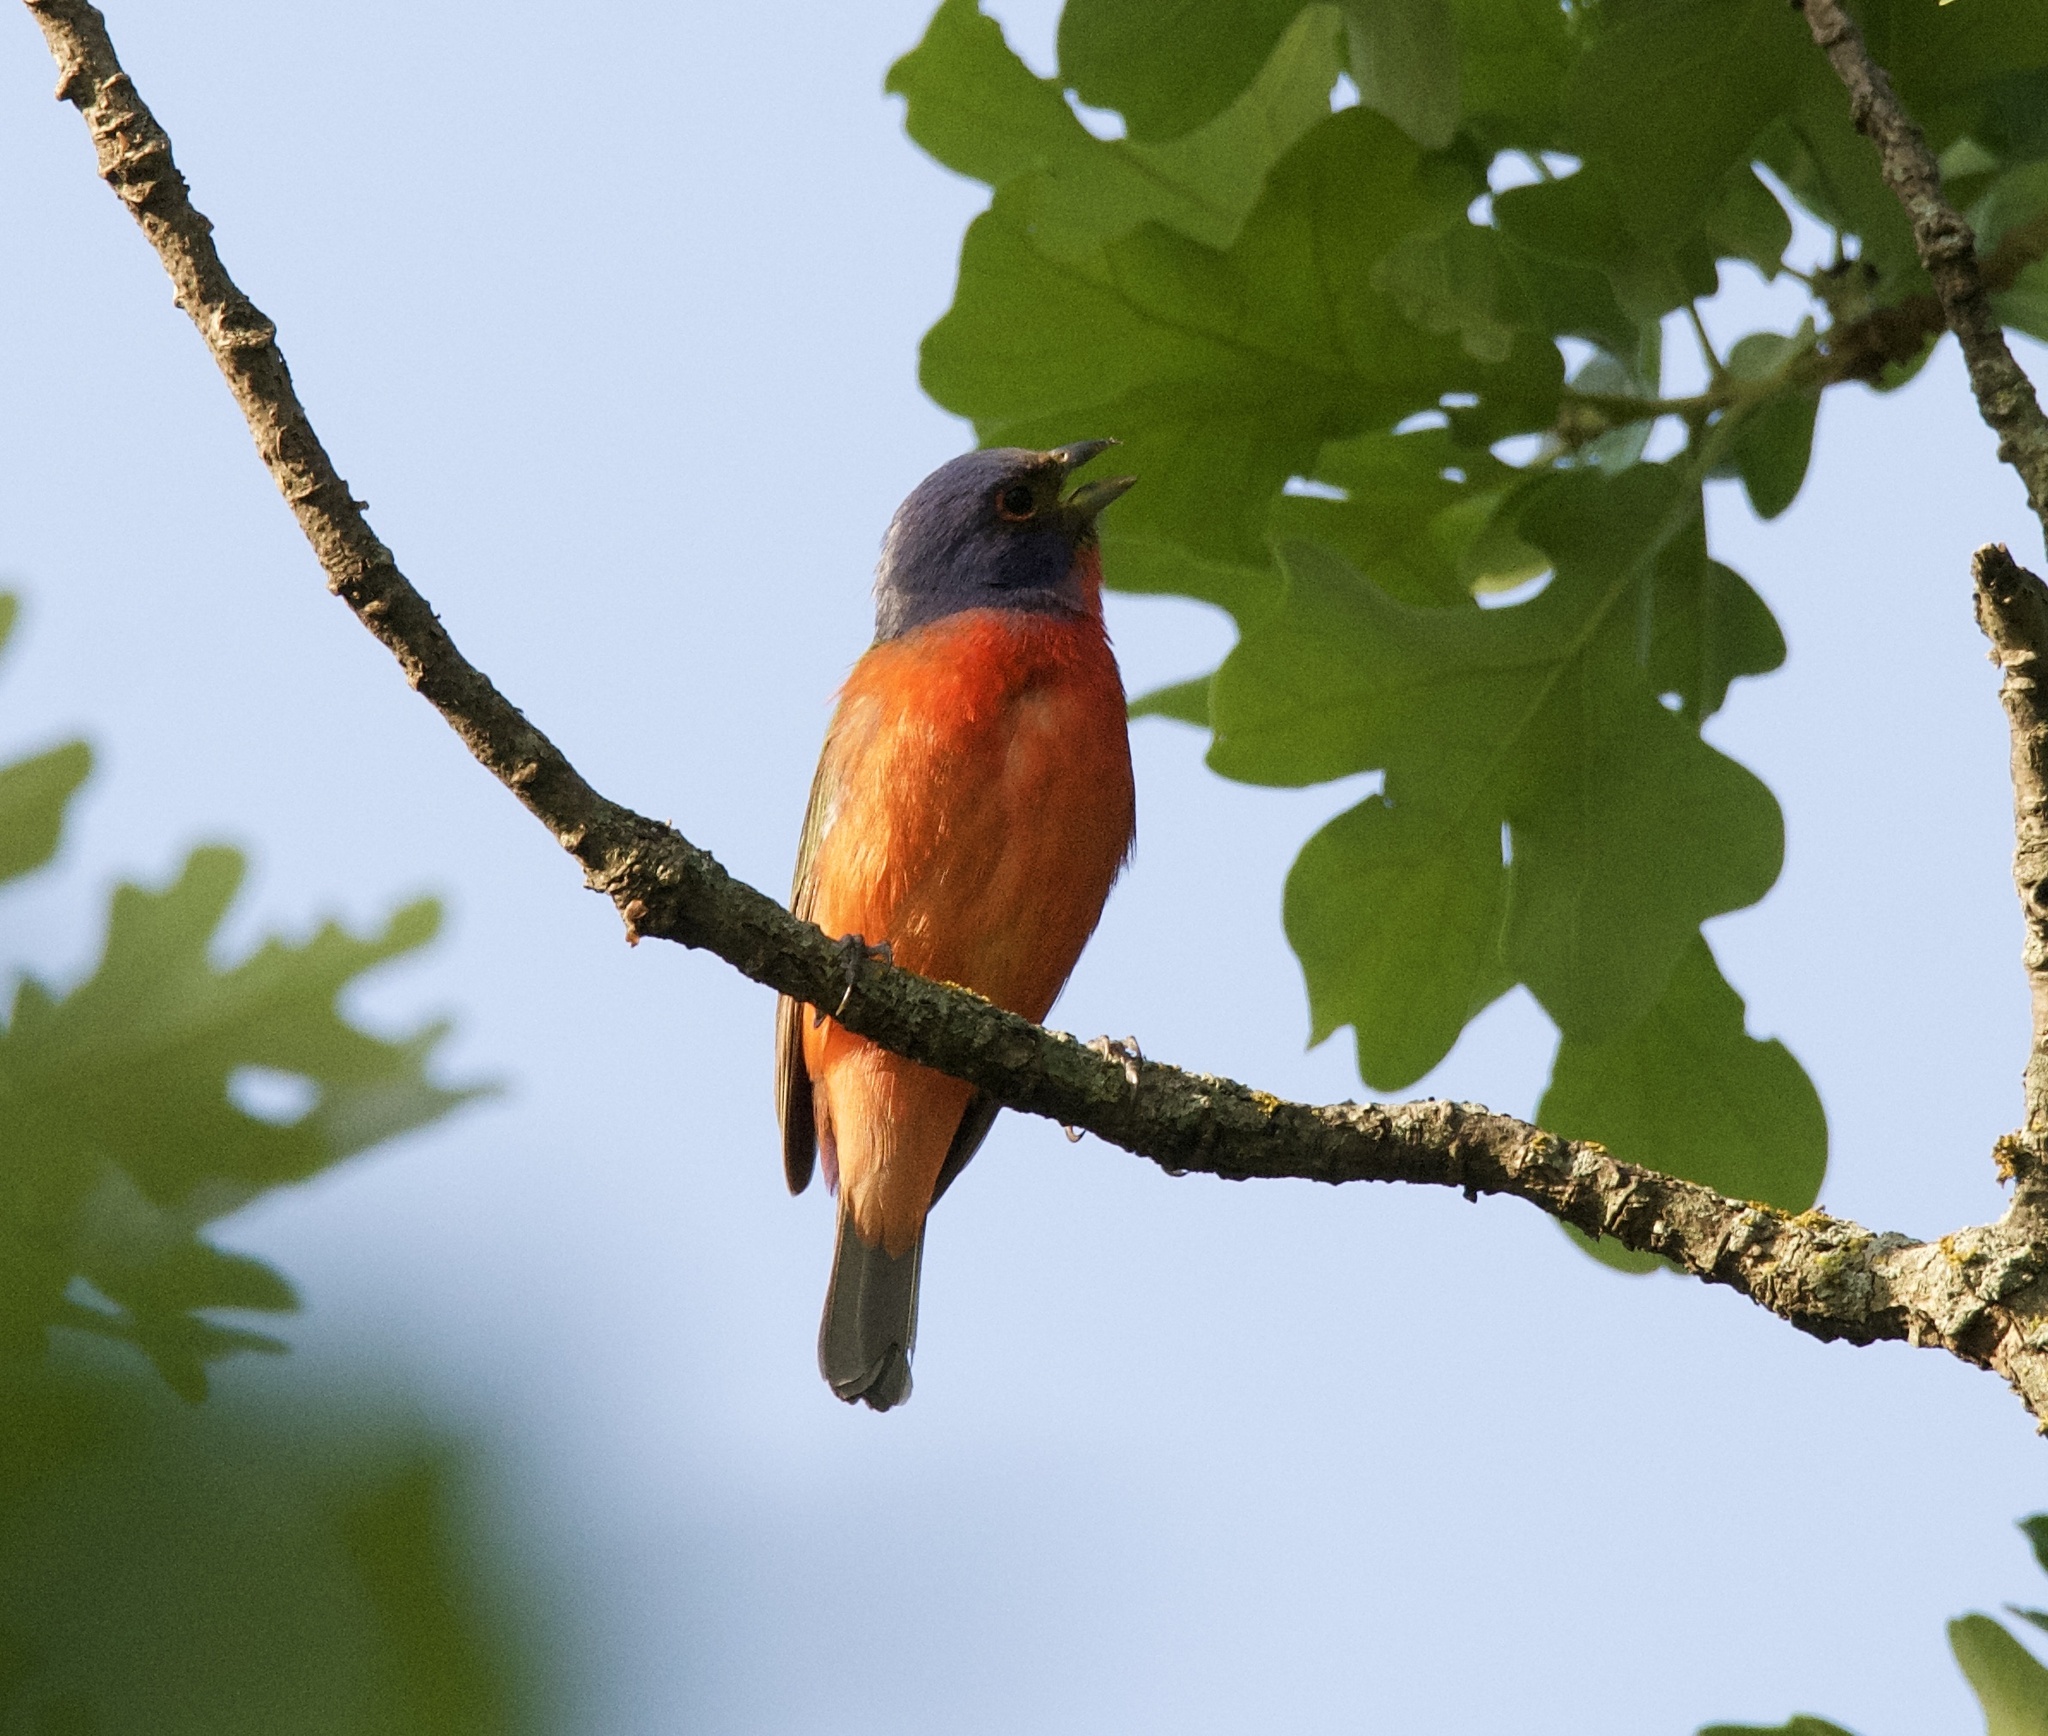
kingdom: Animalia
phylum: Chordata
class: Aves
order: Passeriformes
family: Cardinalidae
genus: Passerina
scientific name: Passerina ciris
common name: Painted bunting
